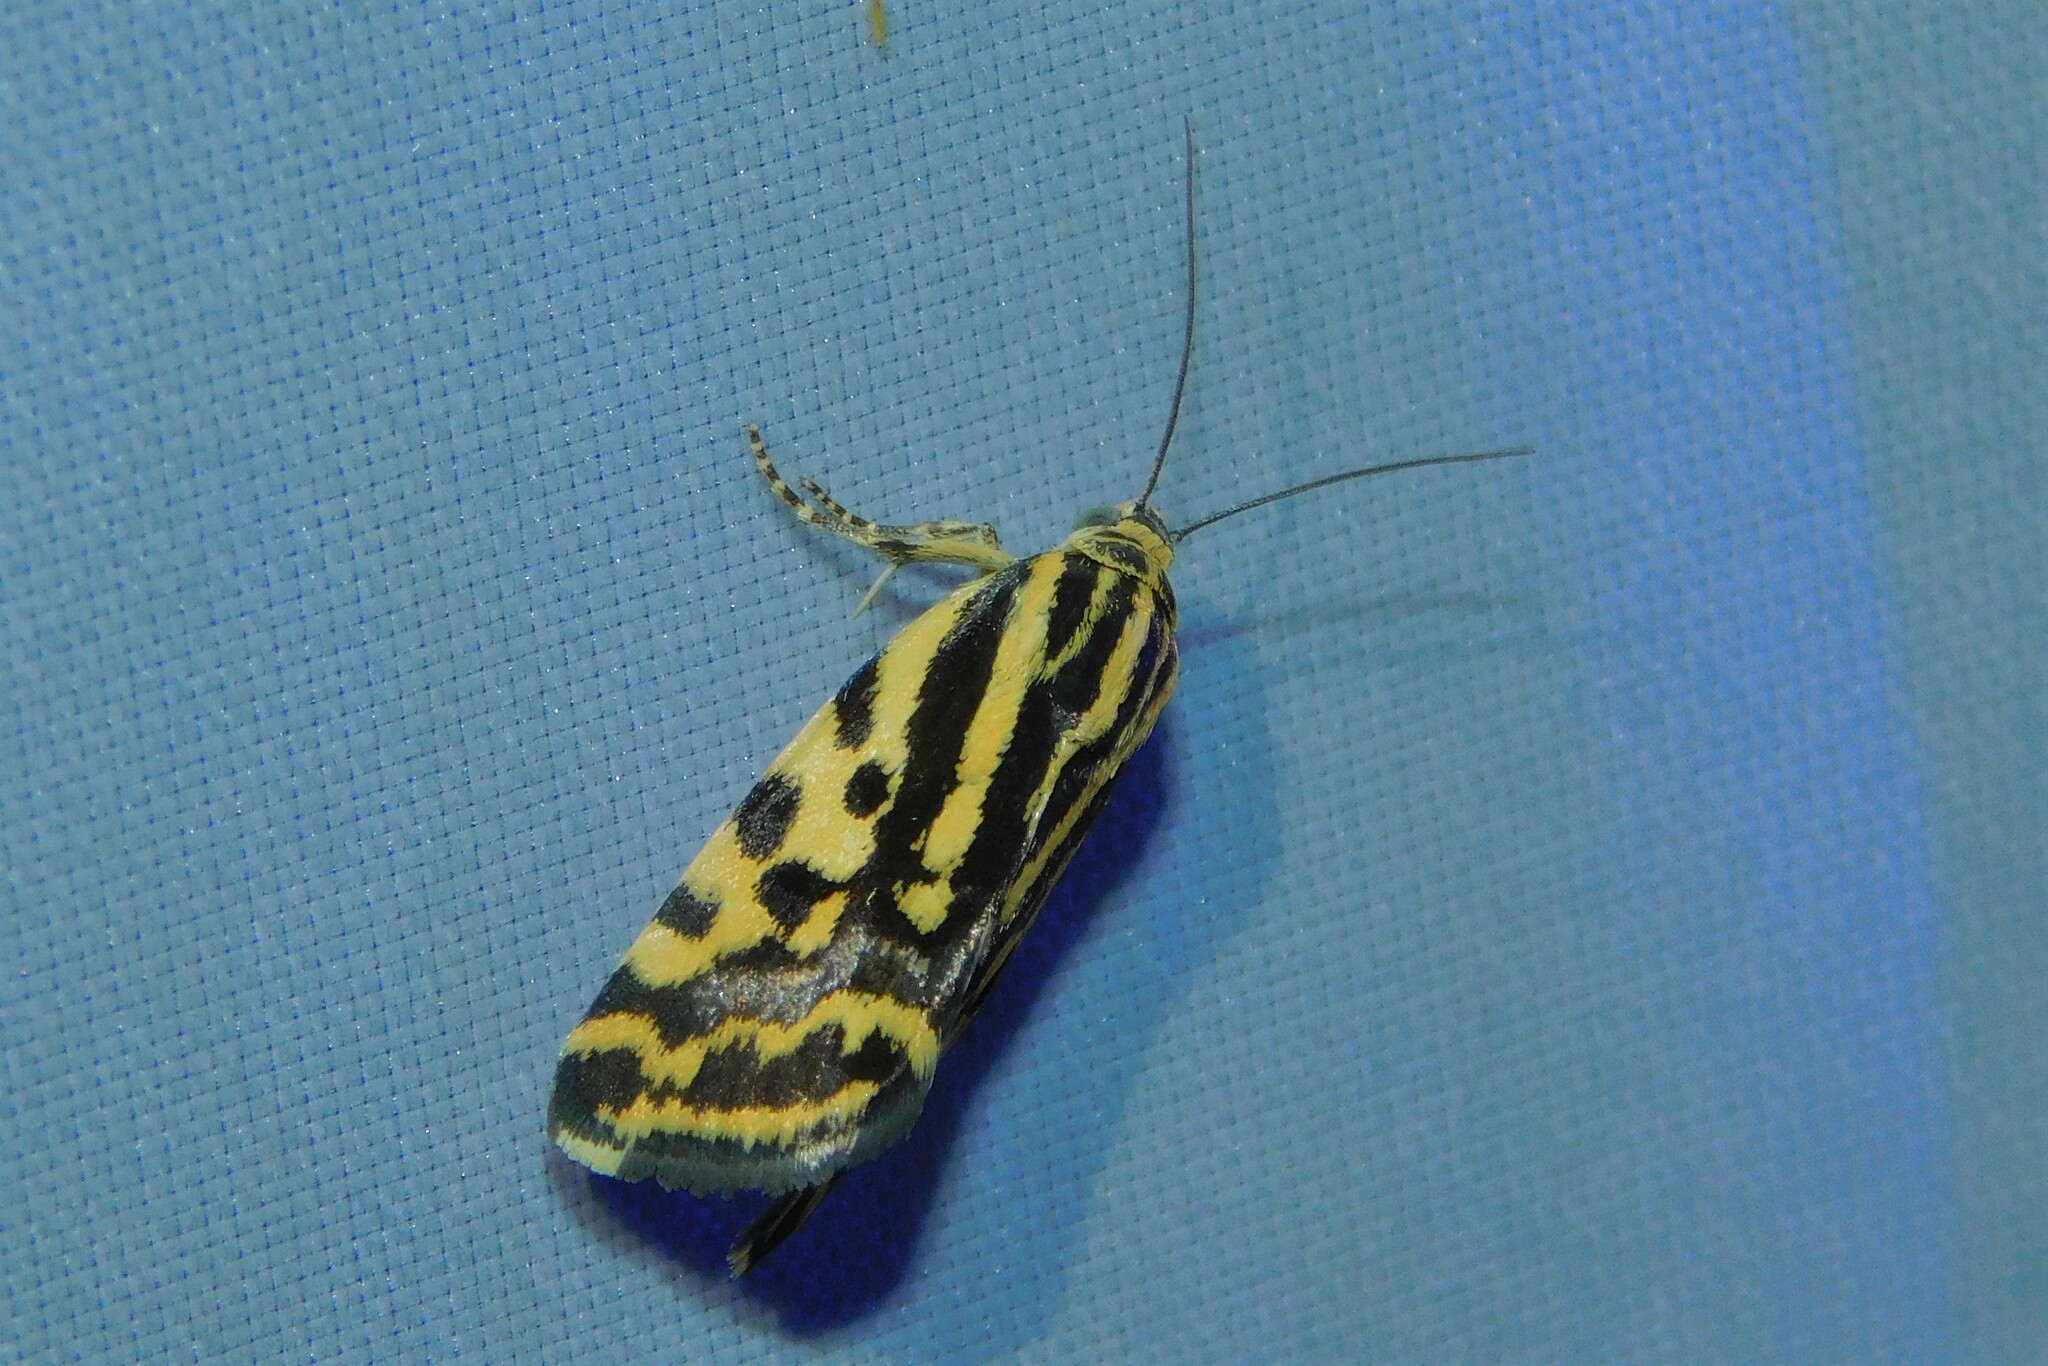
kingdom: Animalia
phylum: Arthropoda
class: Insecta
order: Lepidoptera
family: Noctuidae
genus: Acontia
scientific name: Acontia trabealis
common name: Spotted sulphur
